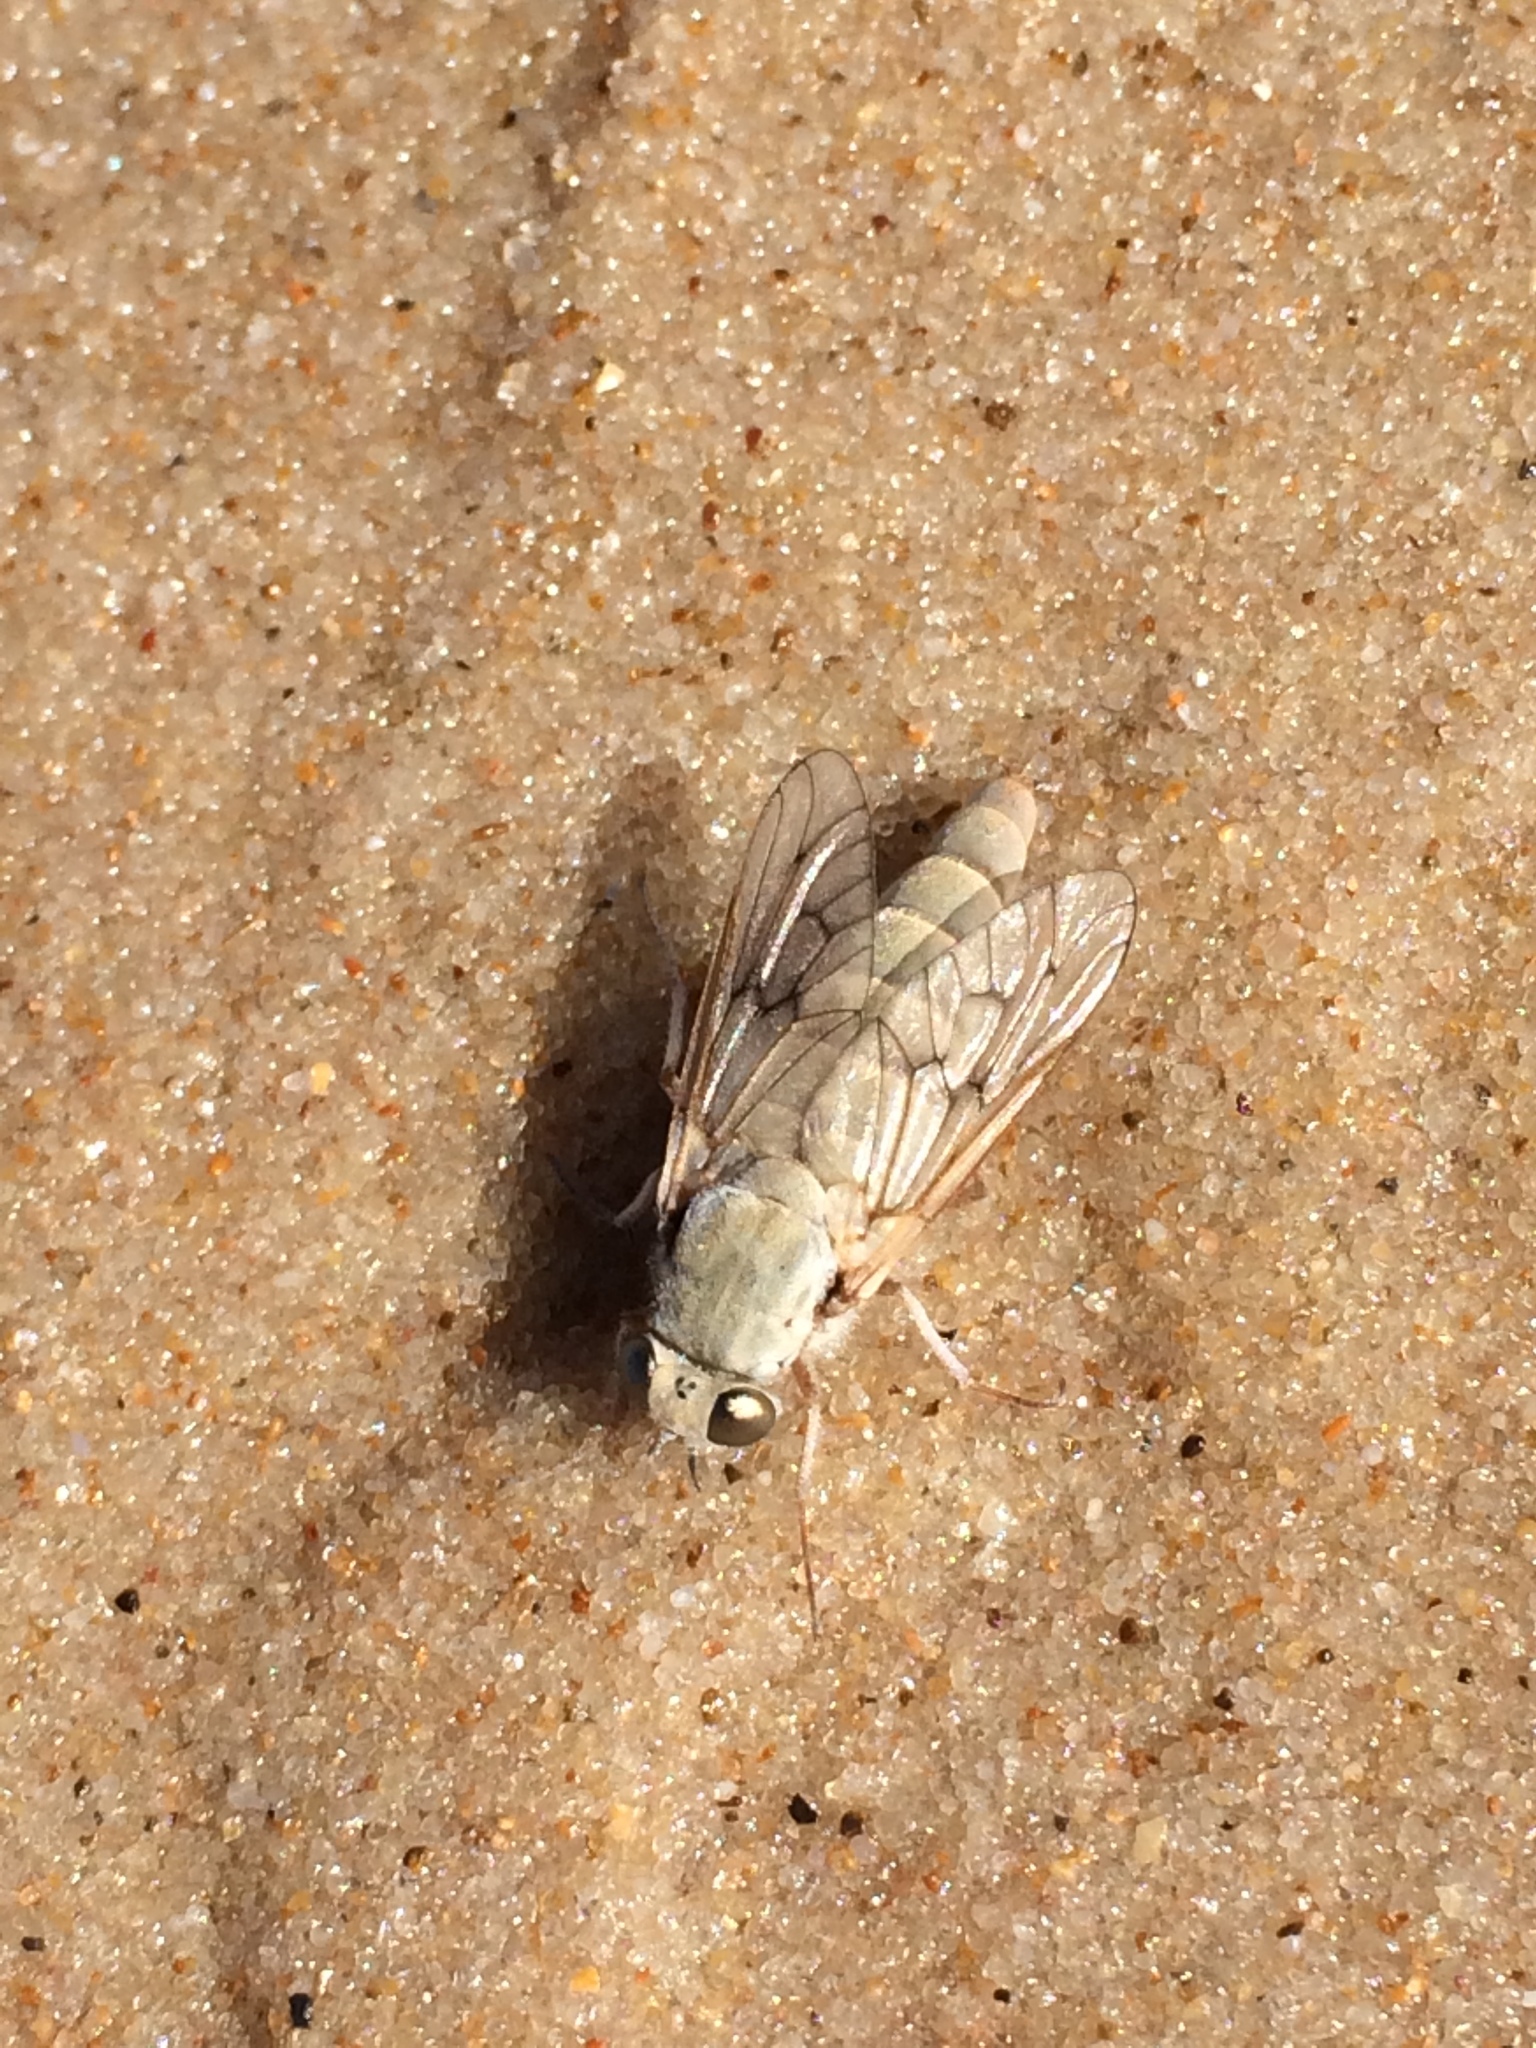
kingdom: Animalia
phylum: Arthropoda
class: Insecta
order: Diptera
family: Tabanidae
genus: Scepsis
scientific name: Scepsis appendiculata
